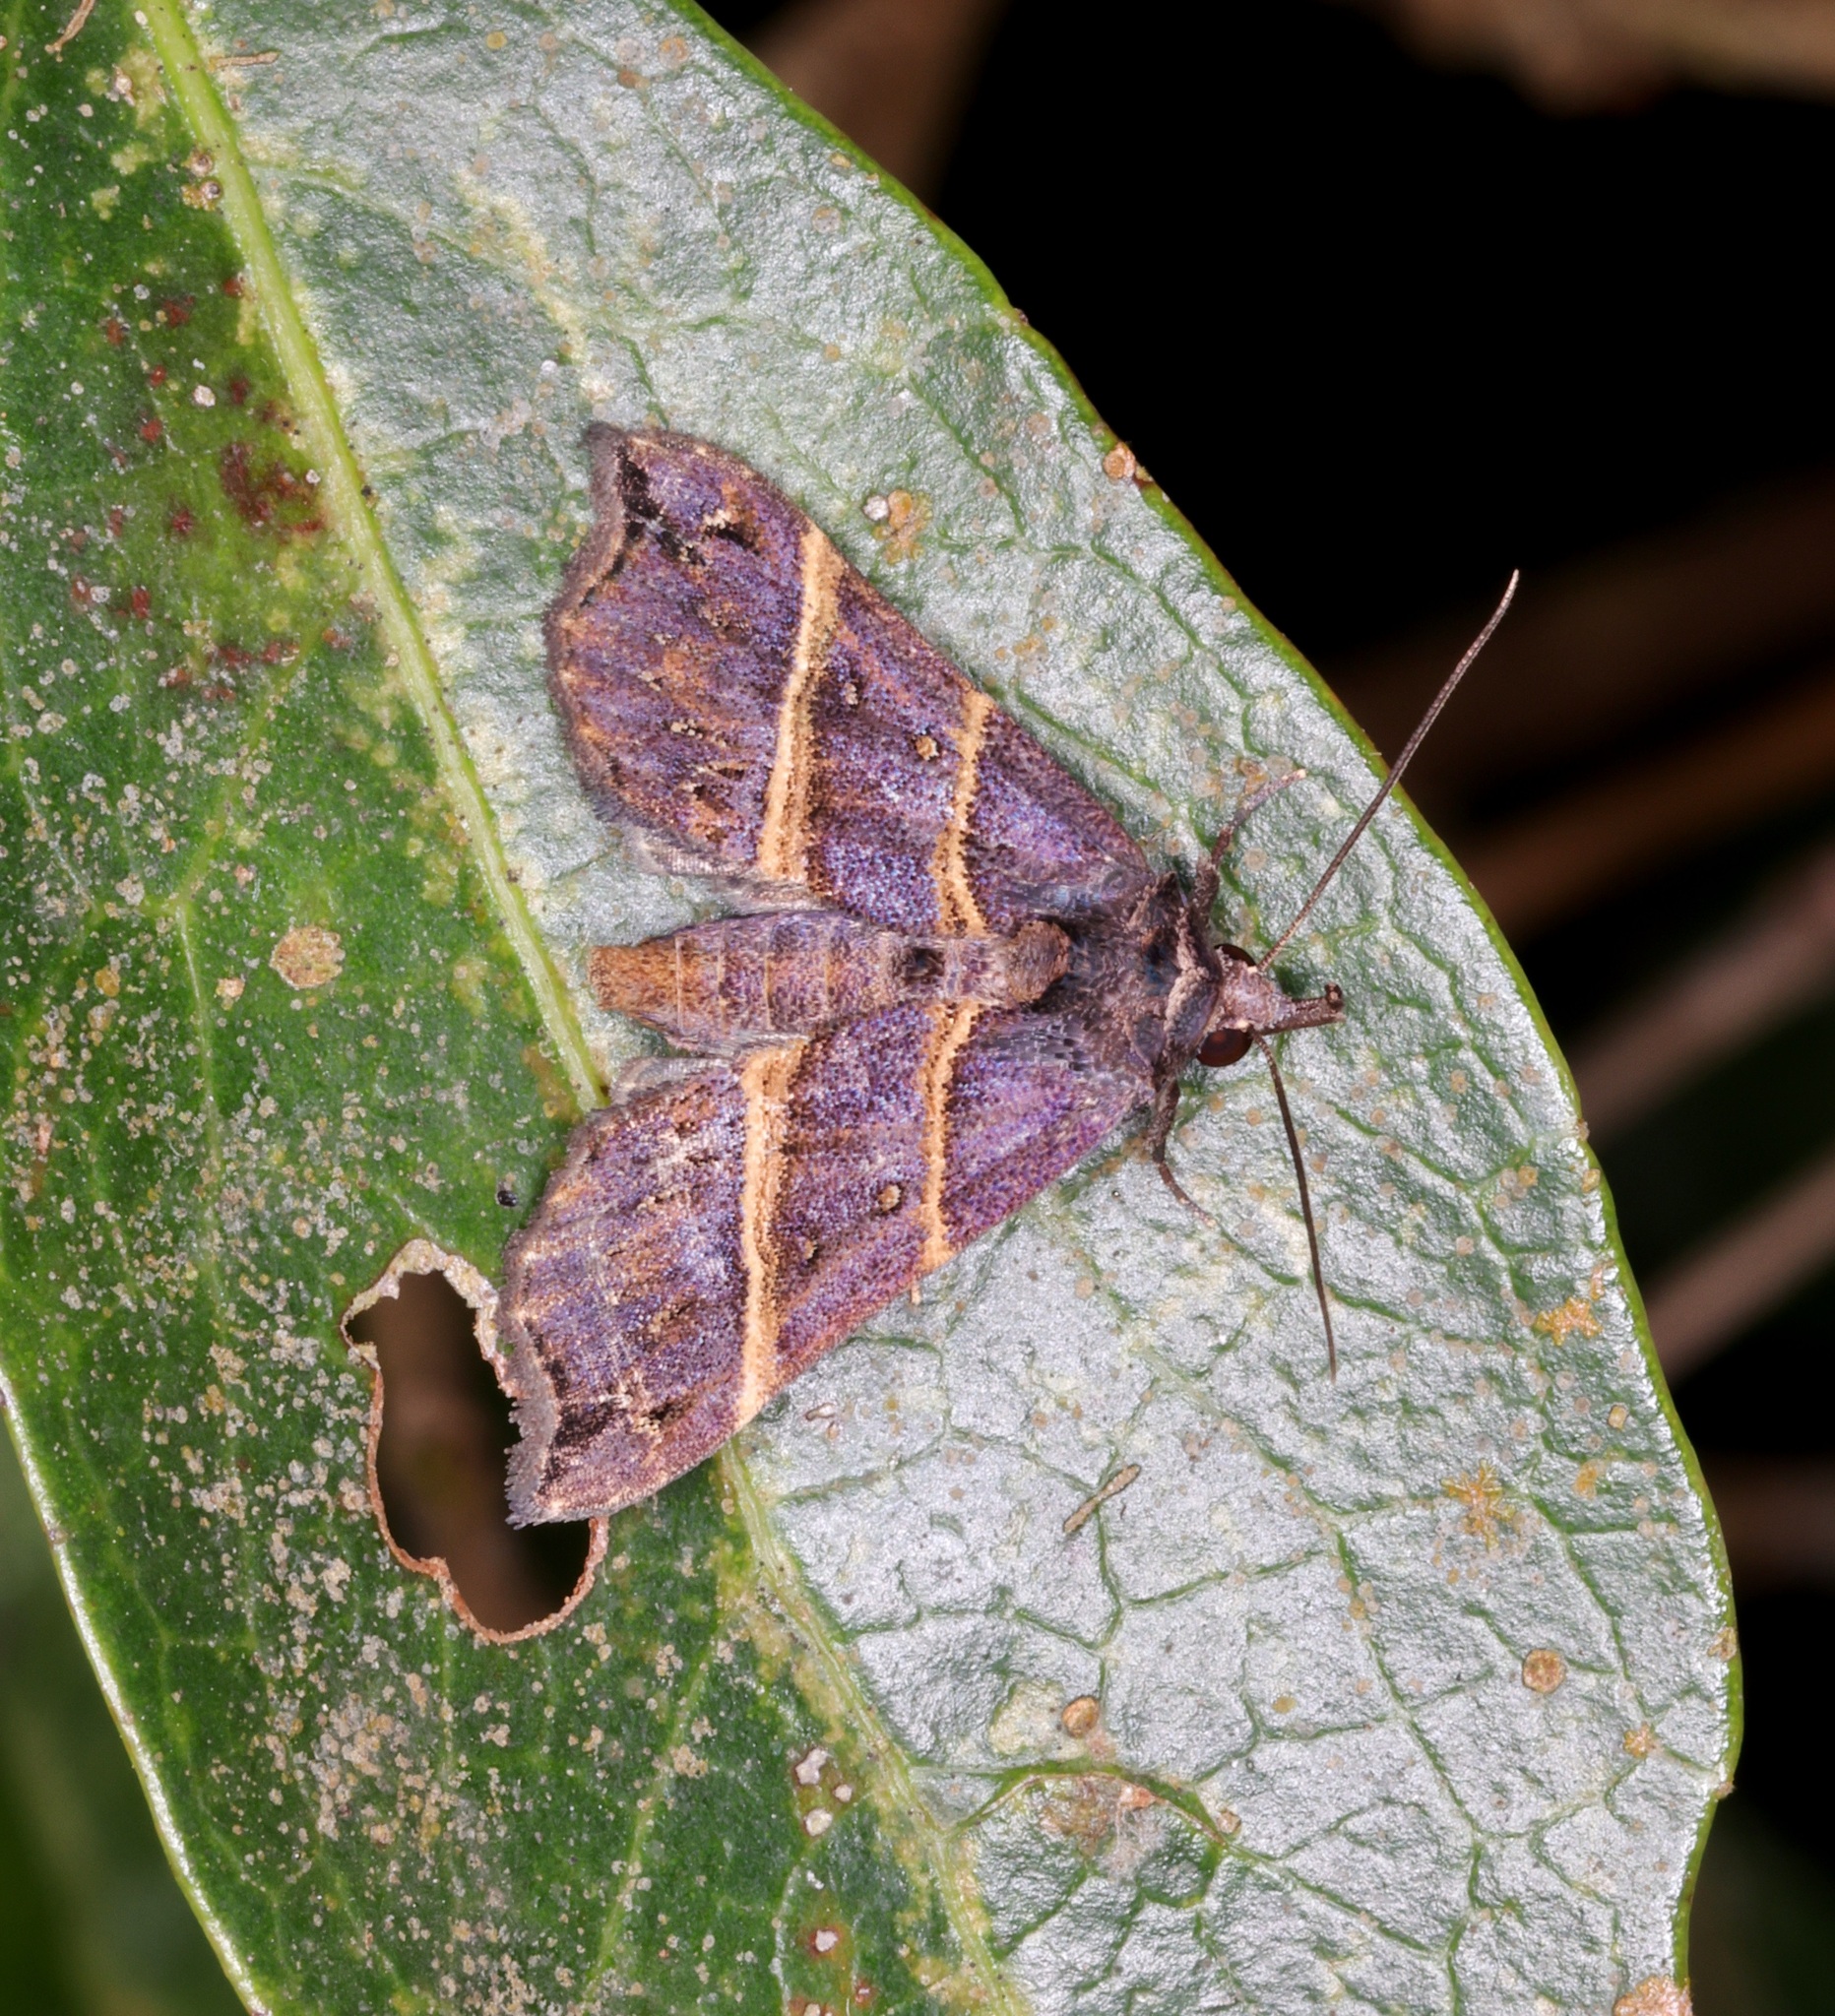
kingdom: Animalia
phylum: Arthropoda
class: Insecta
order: Lepidoptera
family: Erebidae
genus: Acidon
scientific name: Acidon evae
